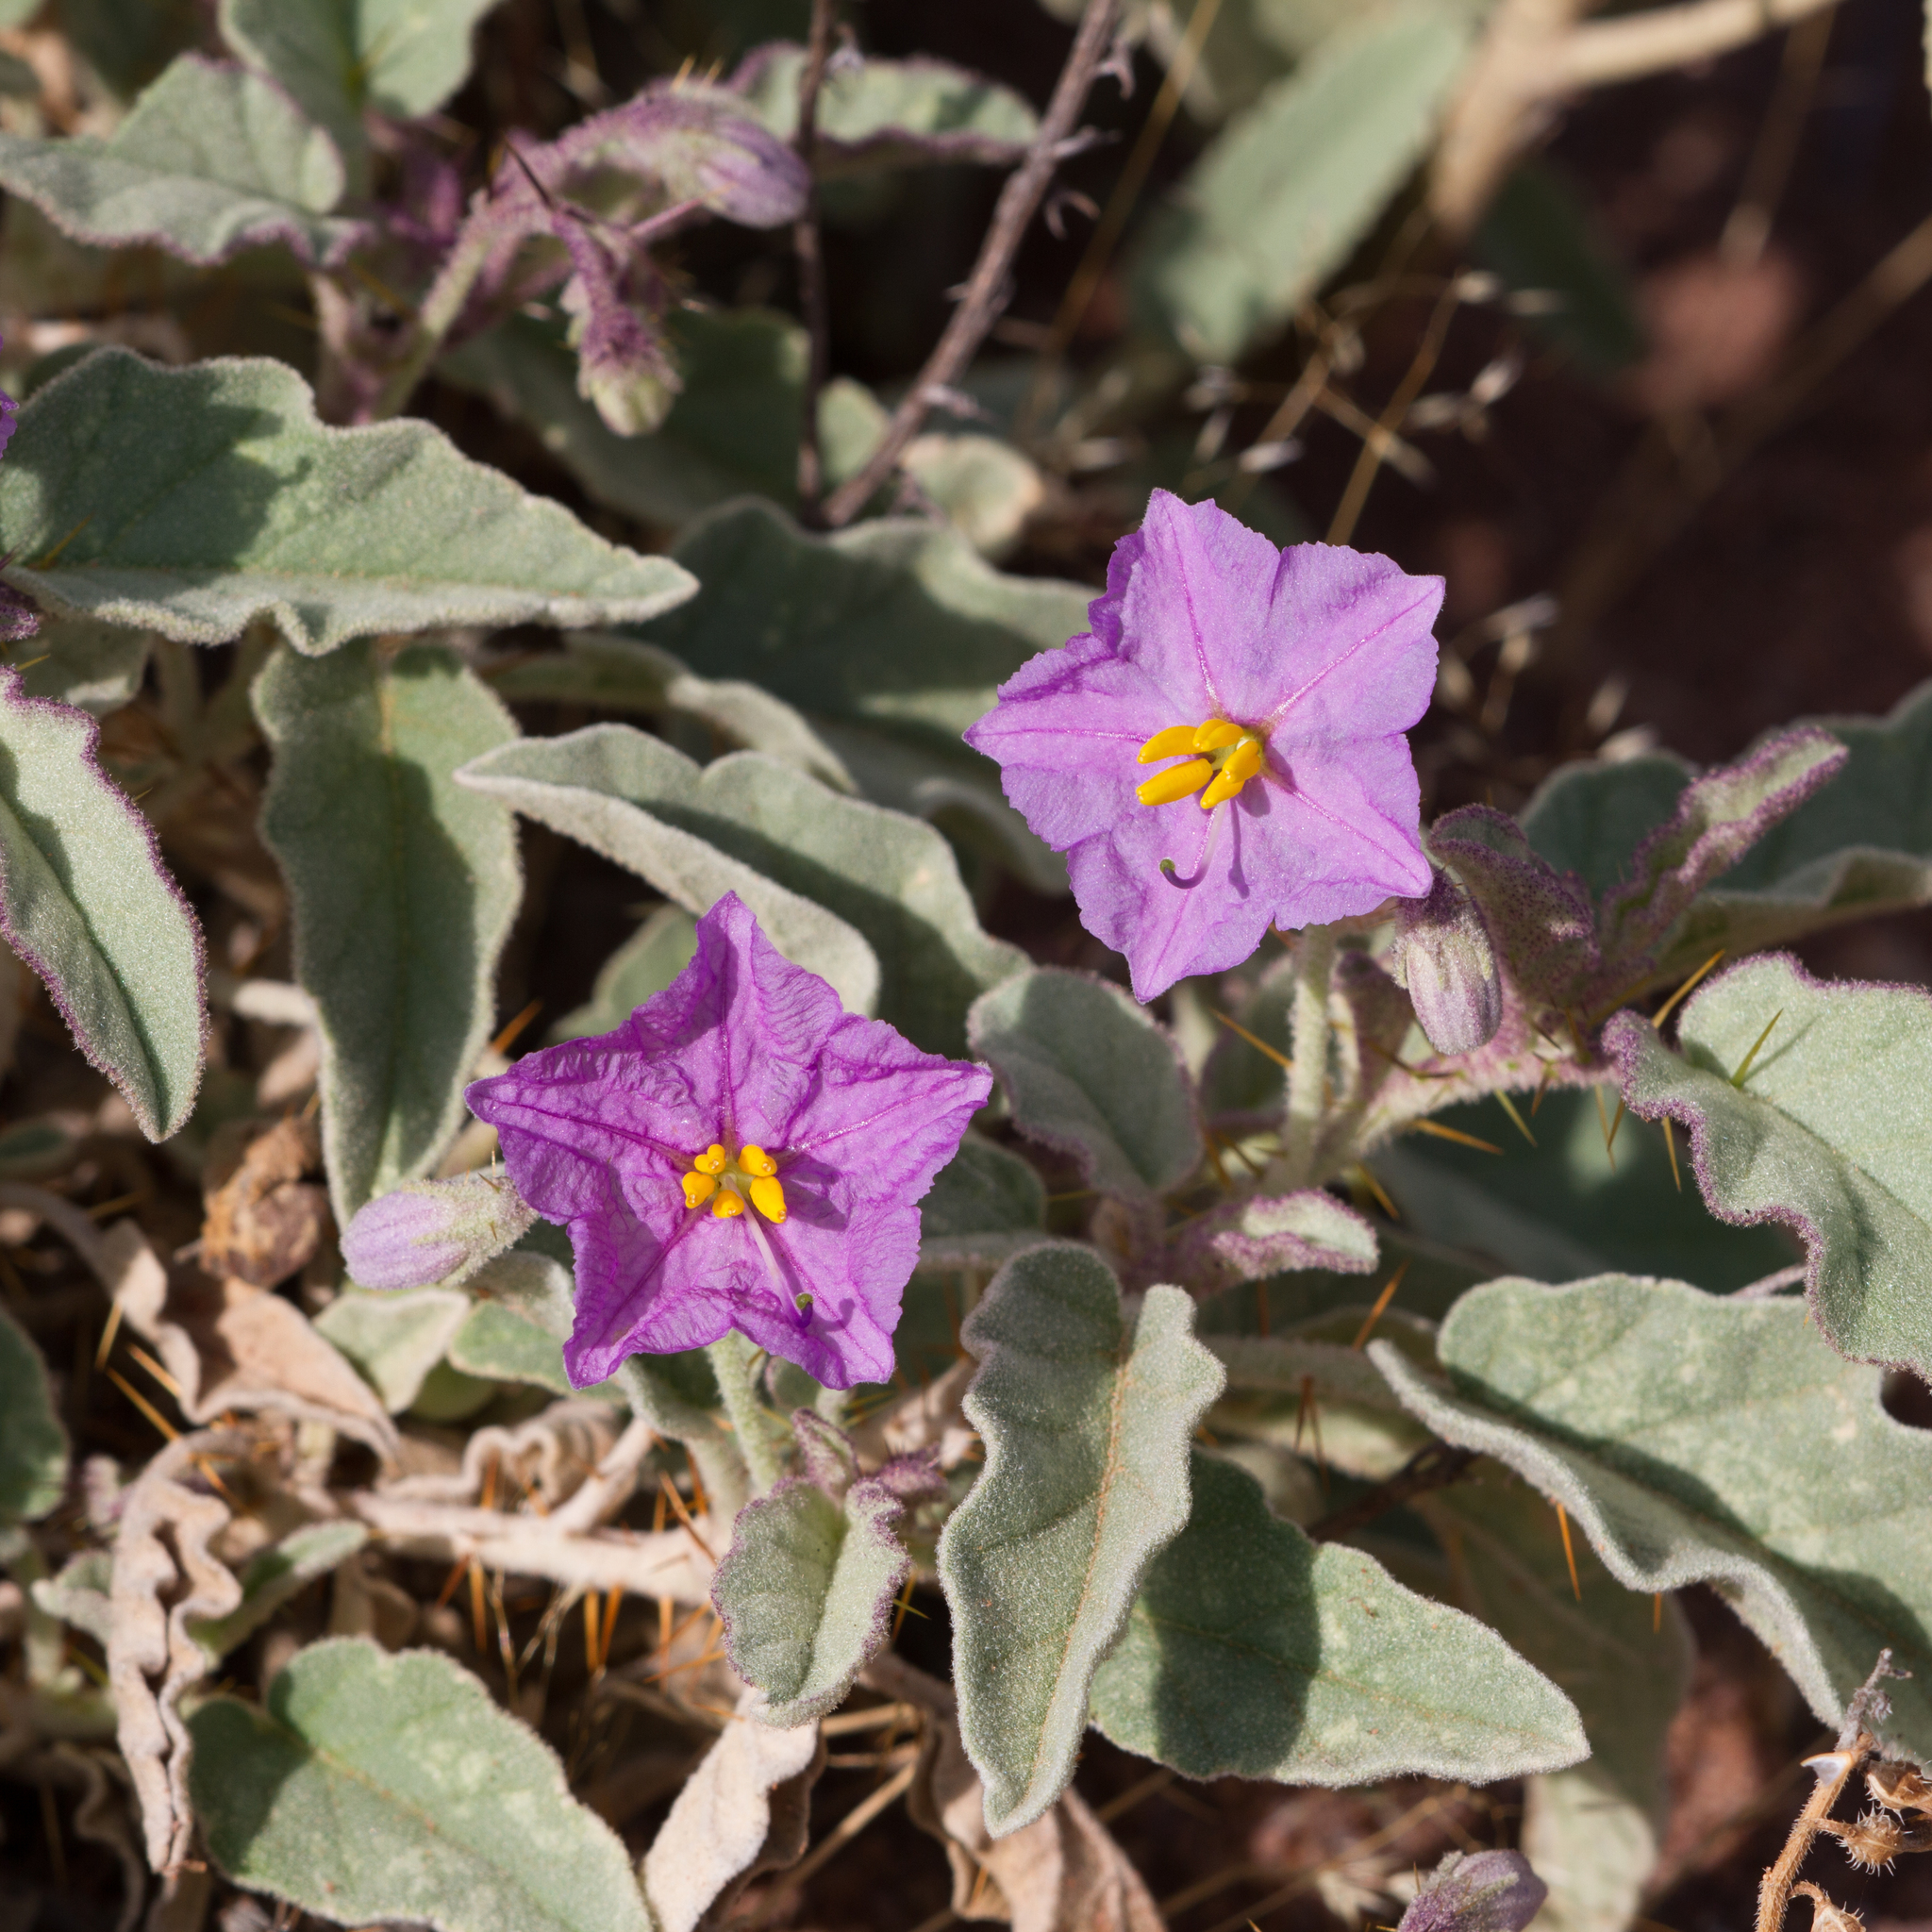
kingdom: Plantae
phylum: Tracheophyta
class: Magnoliopsida
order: Solanales
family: Solanaceae
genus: Solanum
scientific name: Solanum ellipticum
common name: Potato-bush
